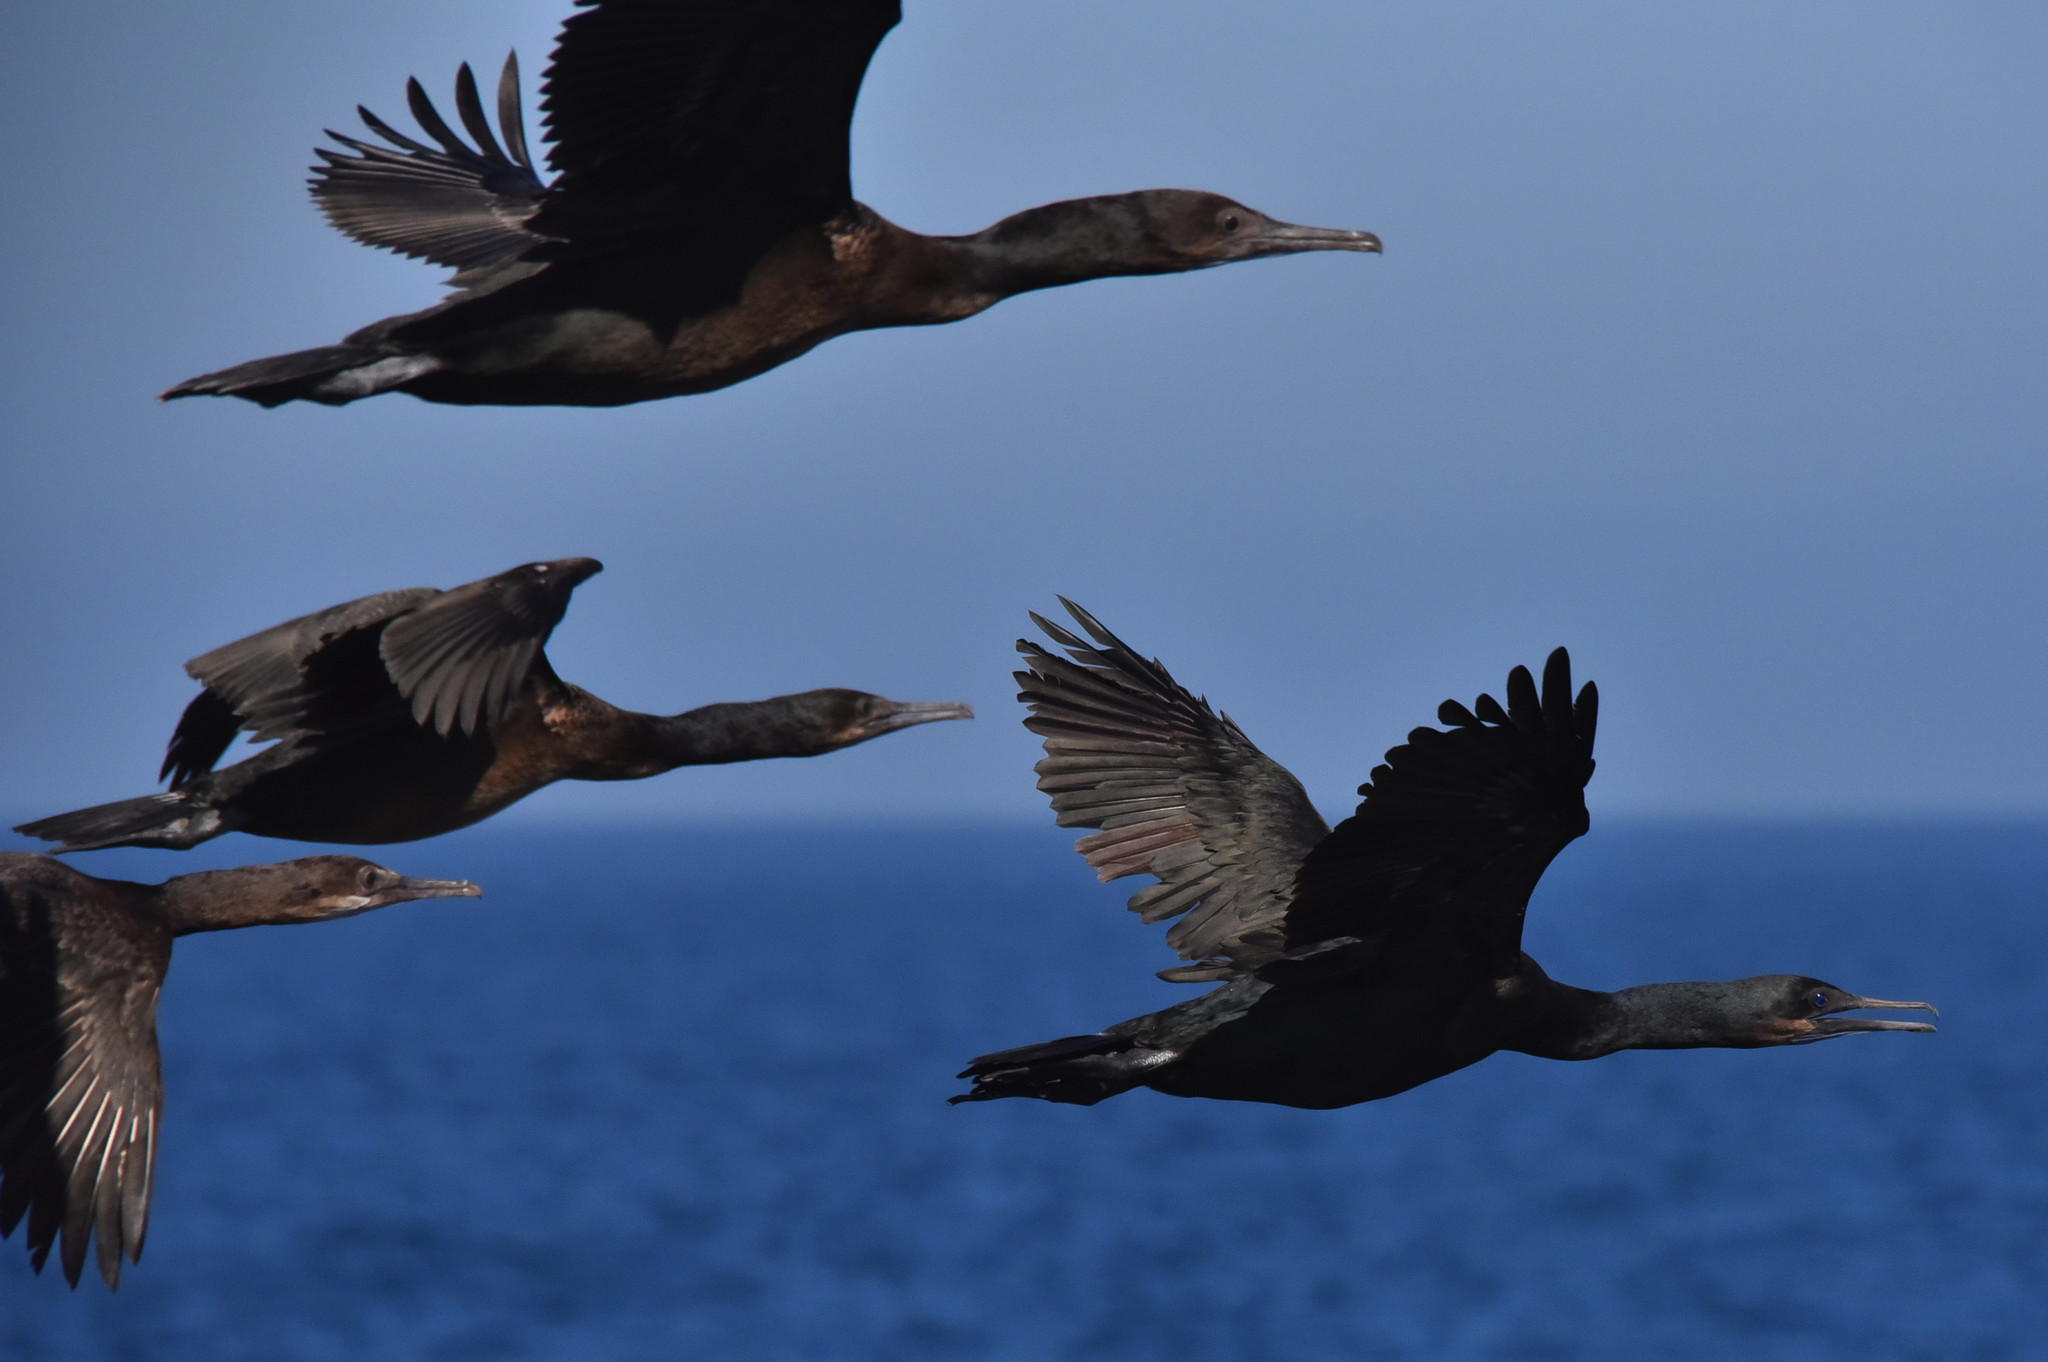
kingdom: Animalia
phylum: Chordata
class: Aves
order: Suliformes
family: Phalacrocoracidae
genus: Urile
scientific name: Urile penicillatus
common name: Brandt's cormorant
